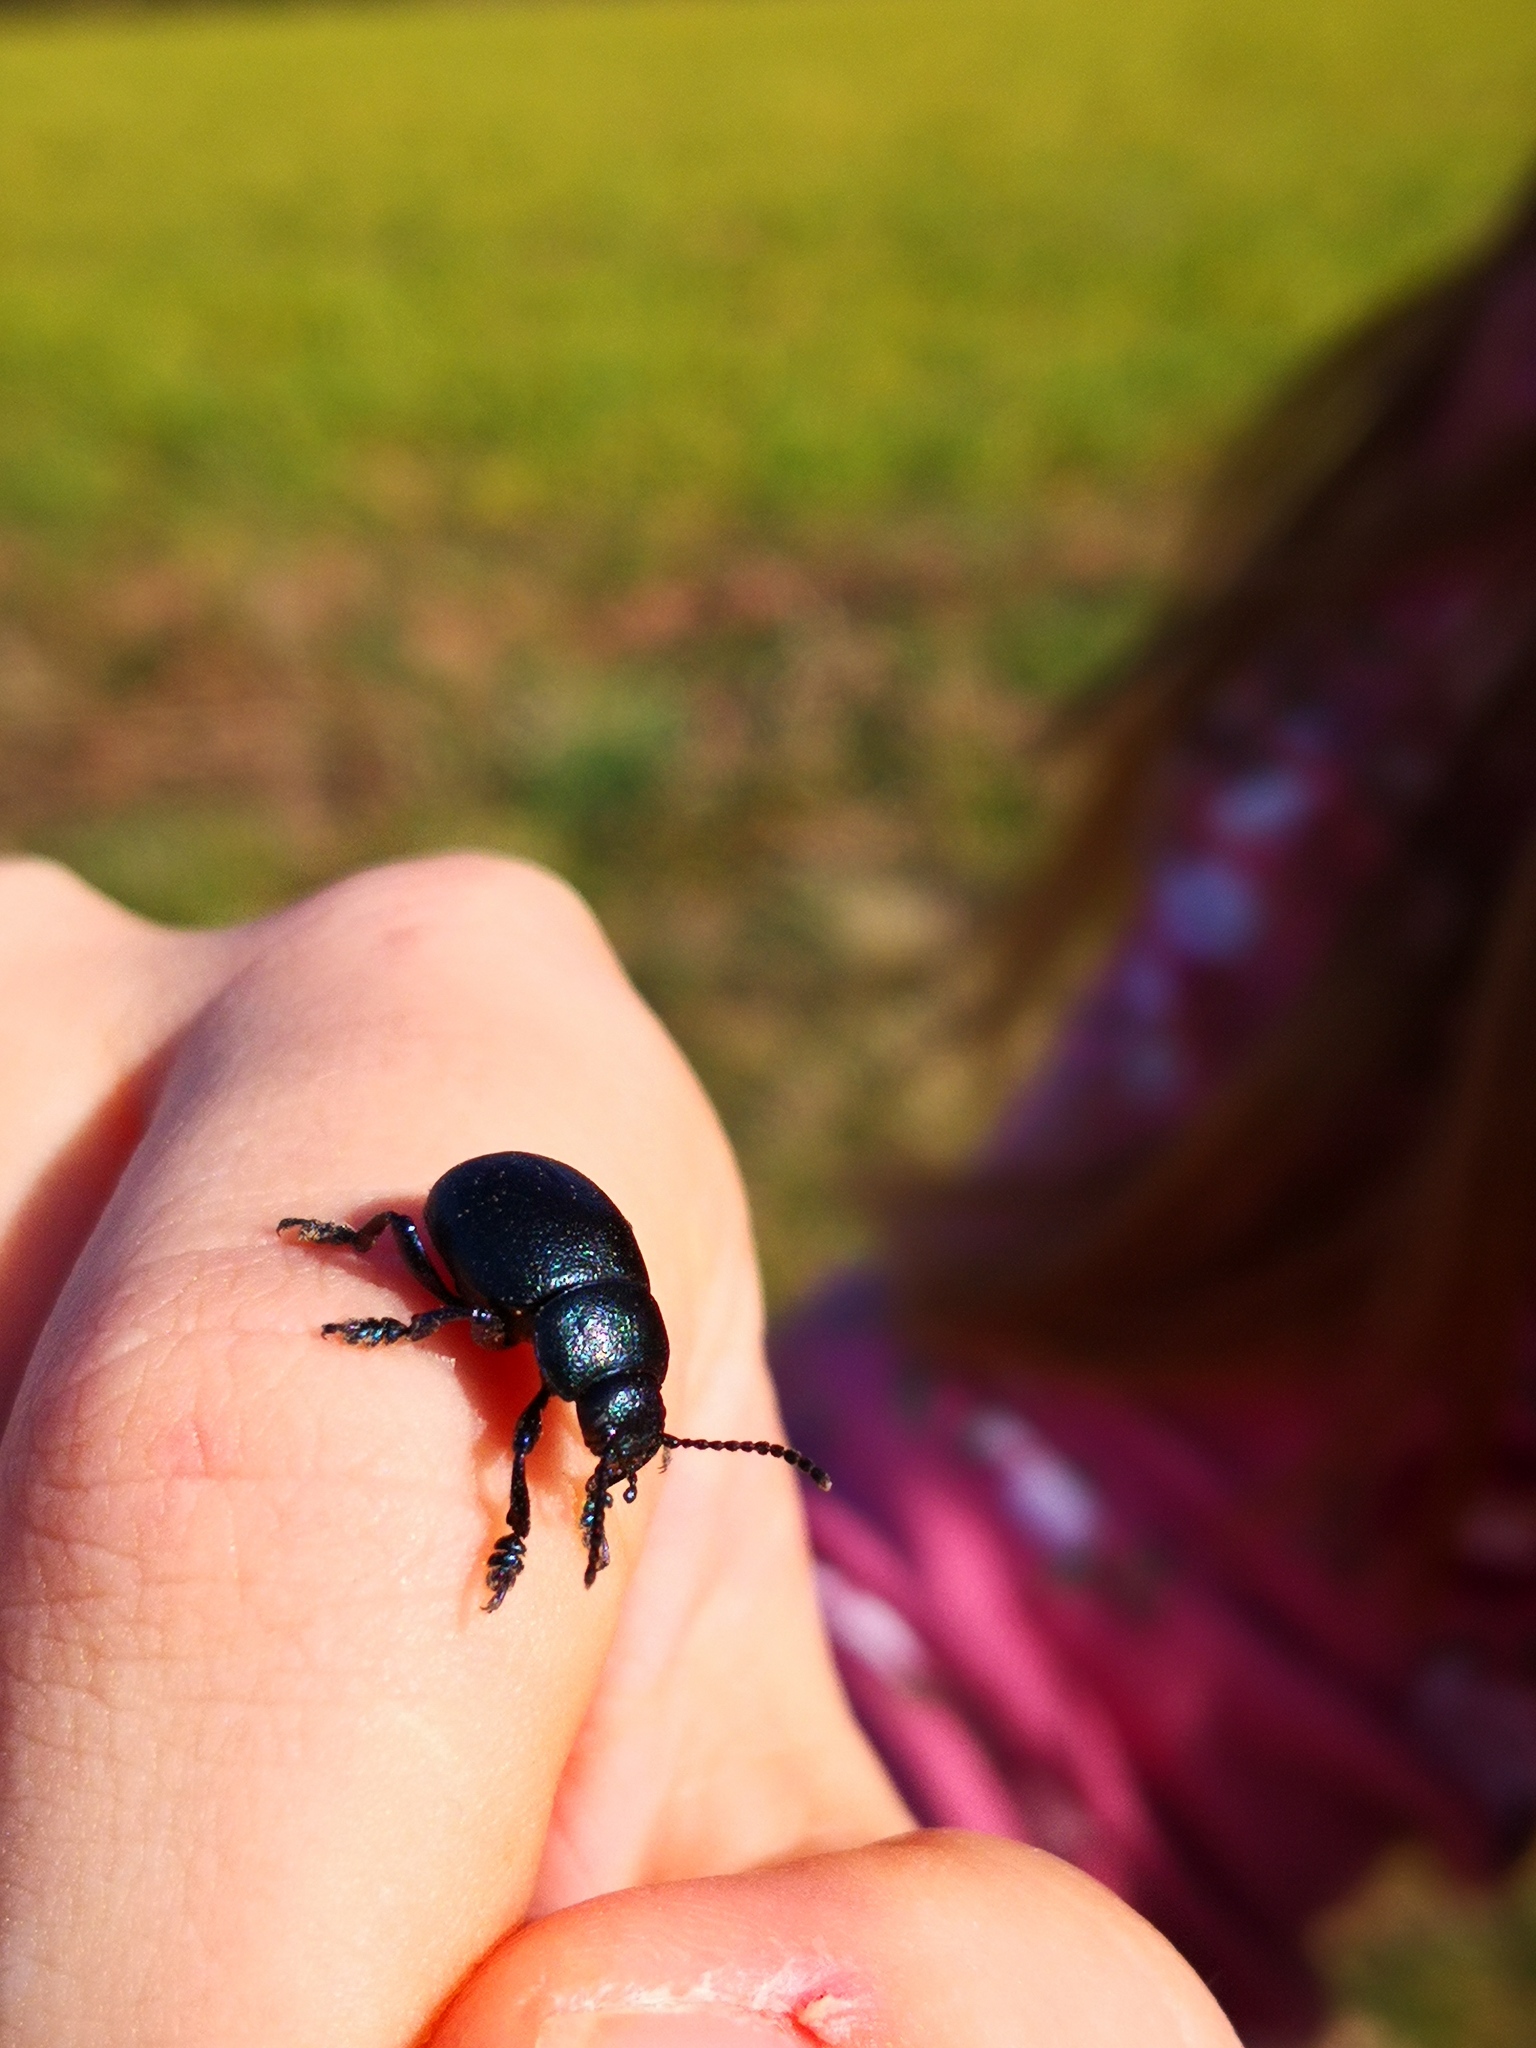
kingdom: Animalia
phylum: Arthropoda
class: Insecta
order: Coleoptera
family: Chrysomelidae
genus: Timarcha
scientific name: Timarcha goettingensis
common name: Small bloody-nosed beetle
